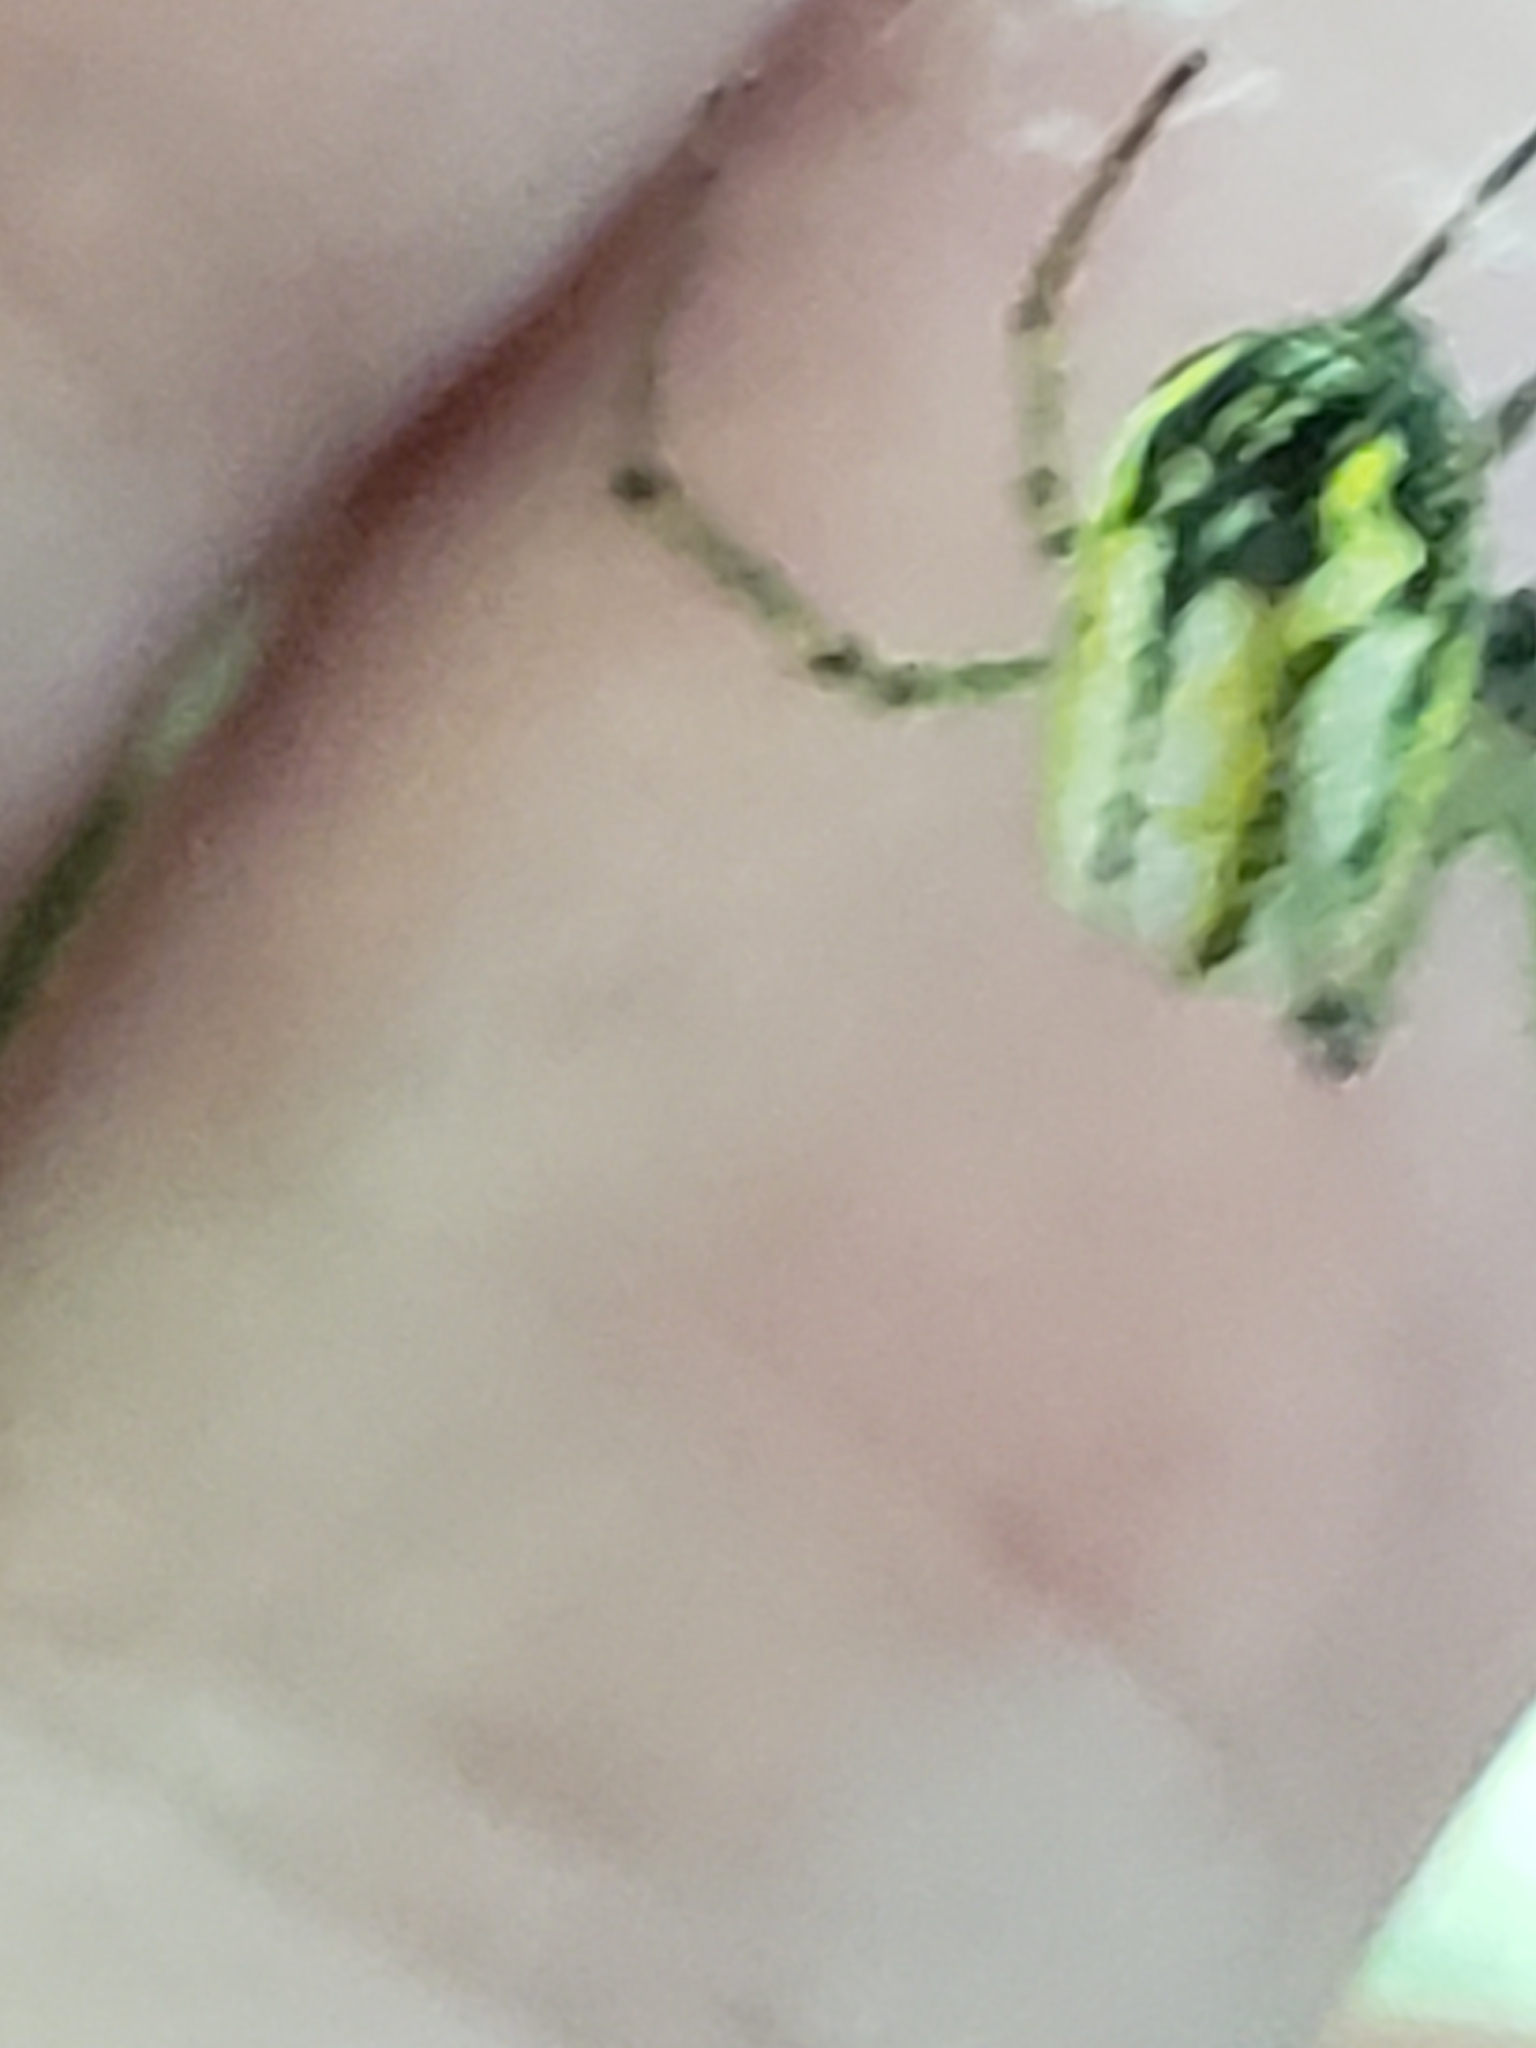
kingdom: Animalia
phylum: Arthropoda
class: Arachnida
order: Araneae
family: Tetragnathidae
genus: Leucauge
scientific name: Leucauge venusta
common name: Longjawed orb weavers
